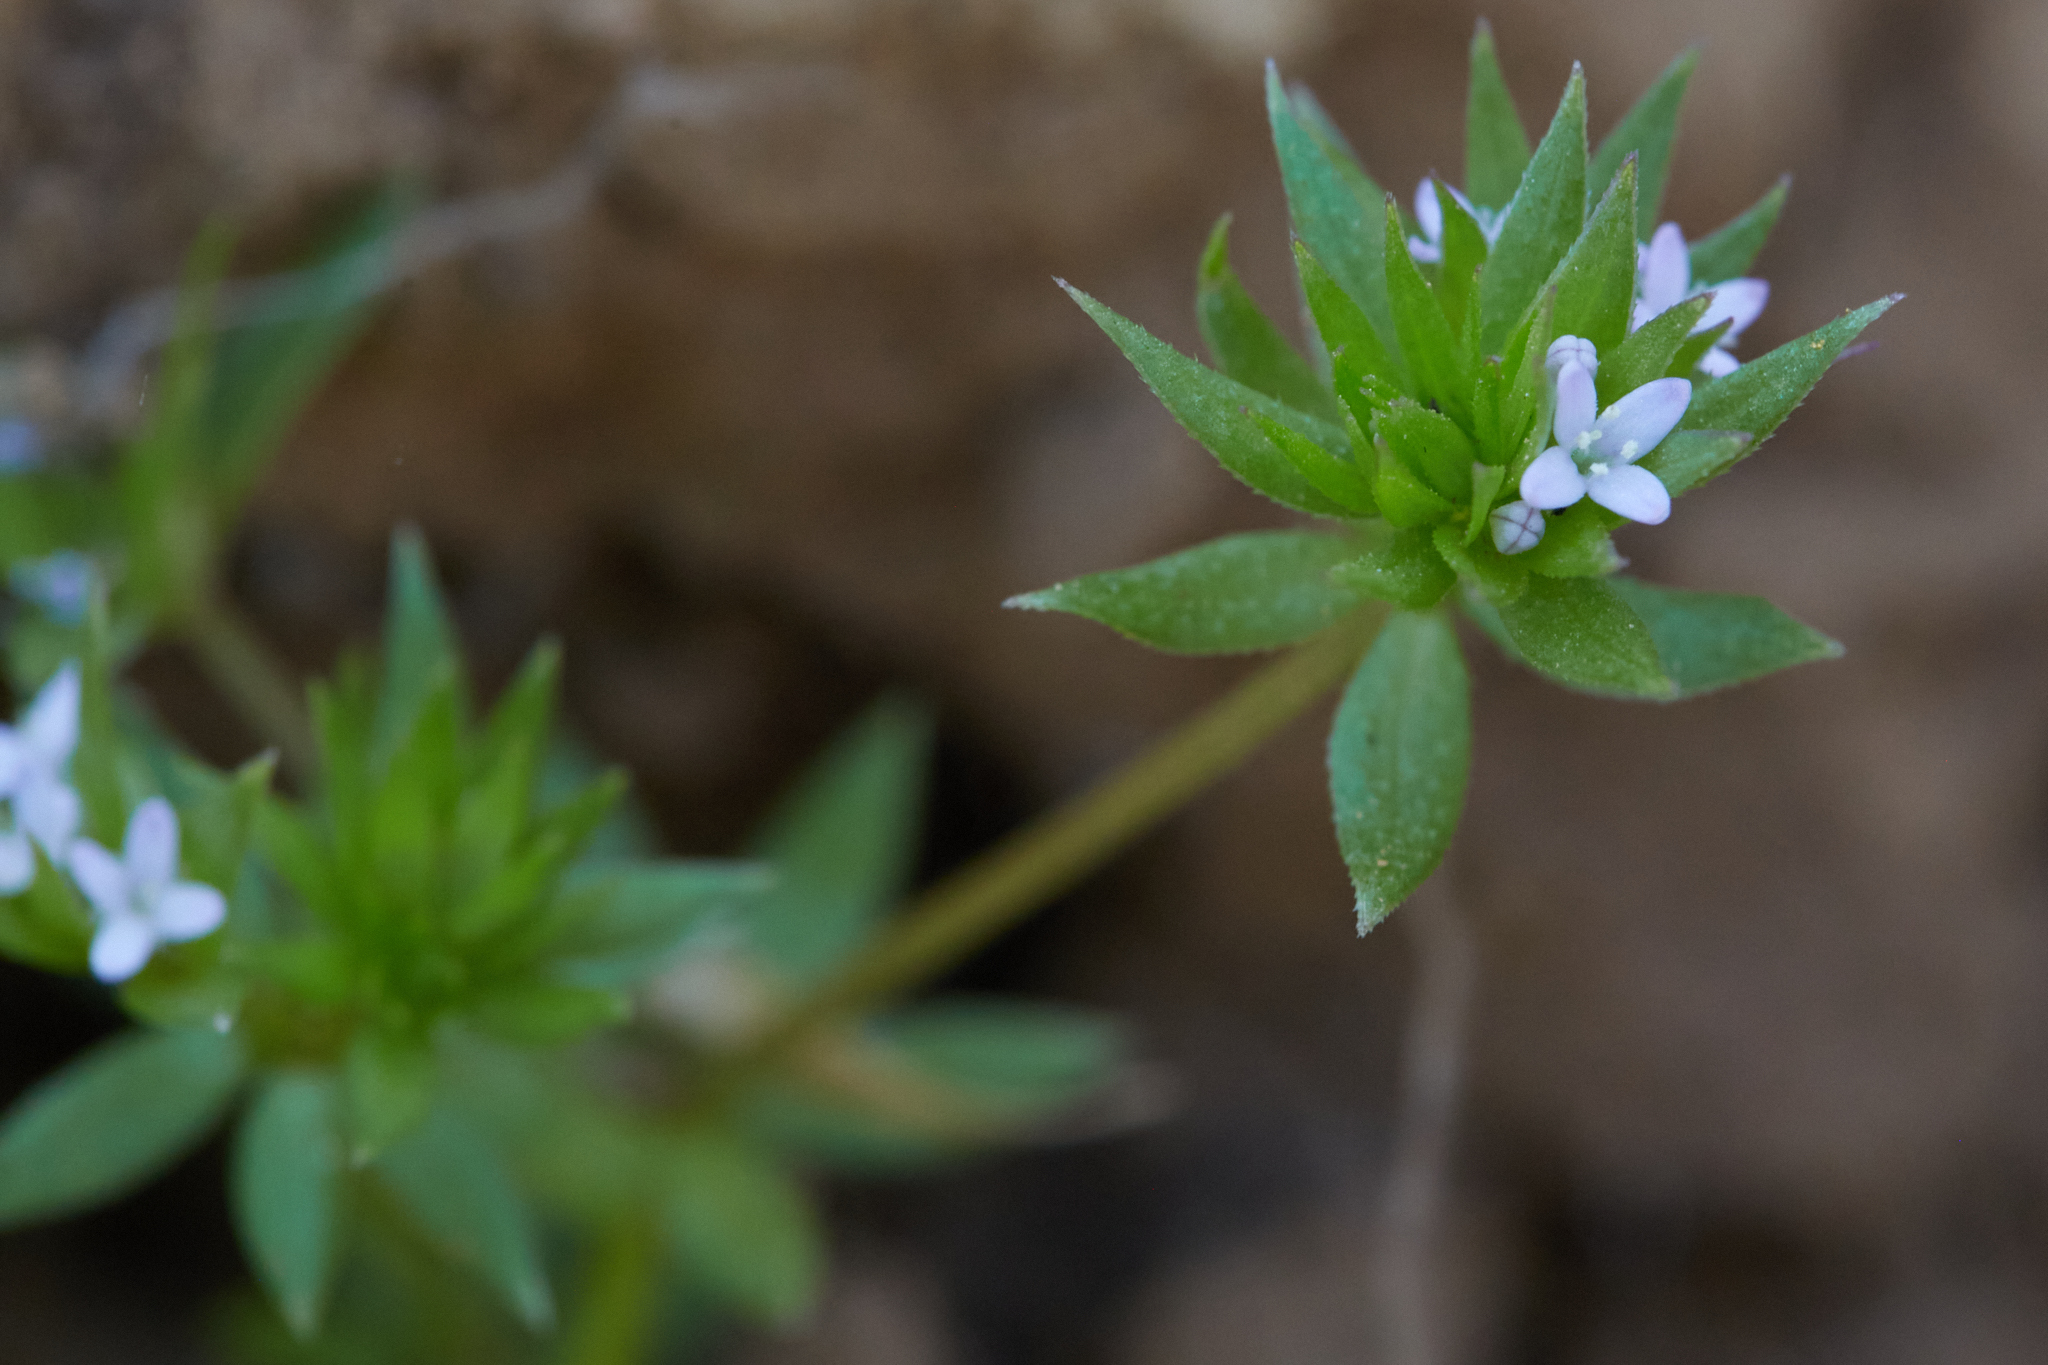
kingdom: Plantae
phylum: Tracheophyta
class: Magnoliopsida
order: Gentianales
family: Rubiaceae
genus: Sherardia
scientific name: Sherardia arvensis
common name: Field madder
